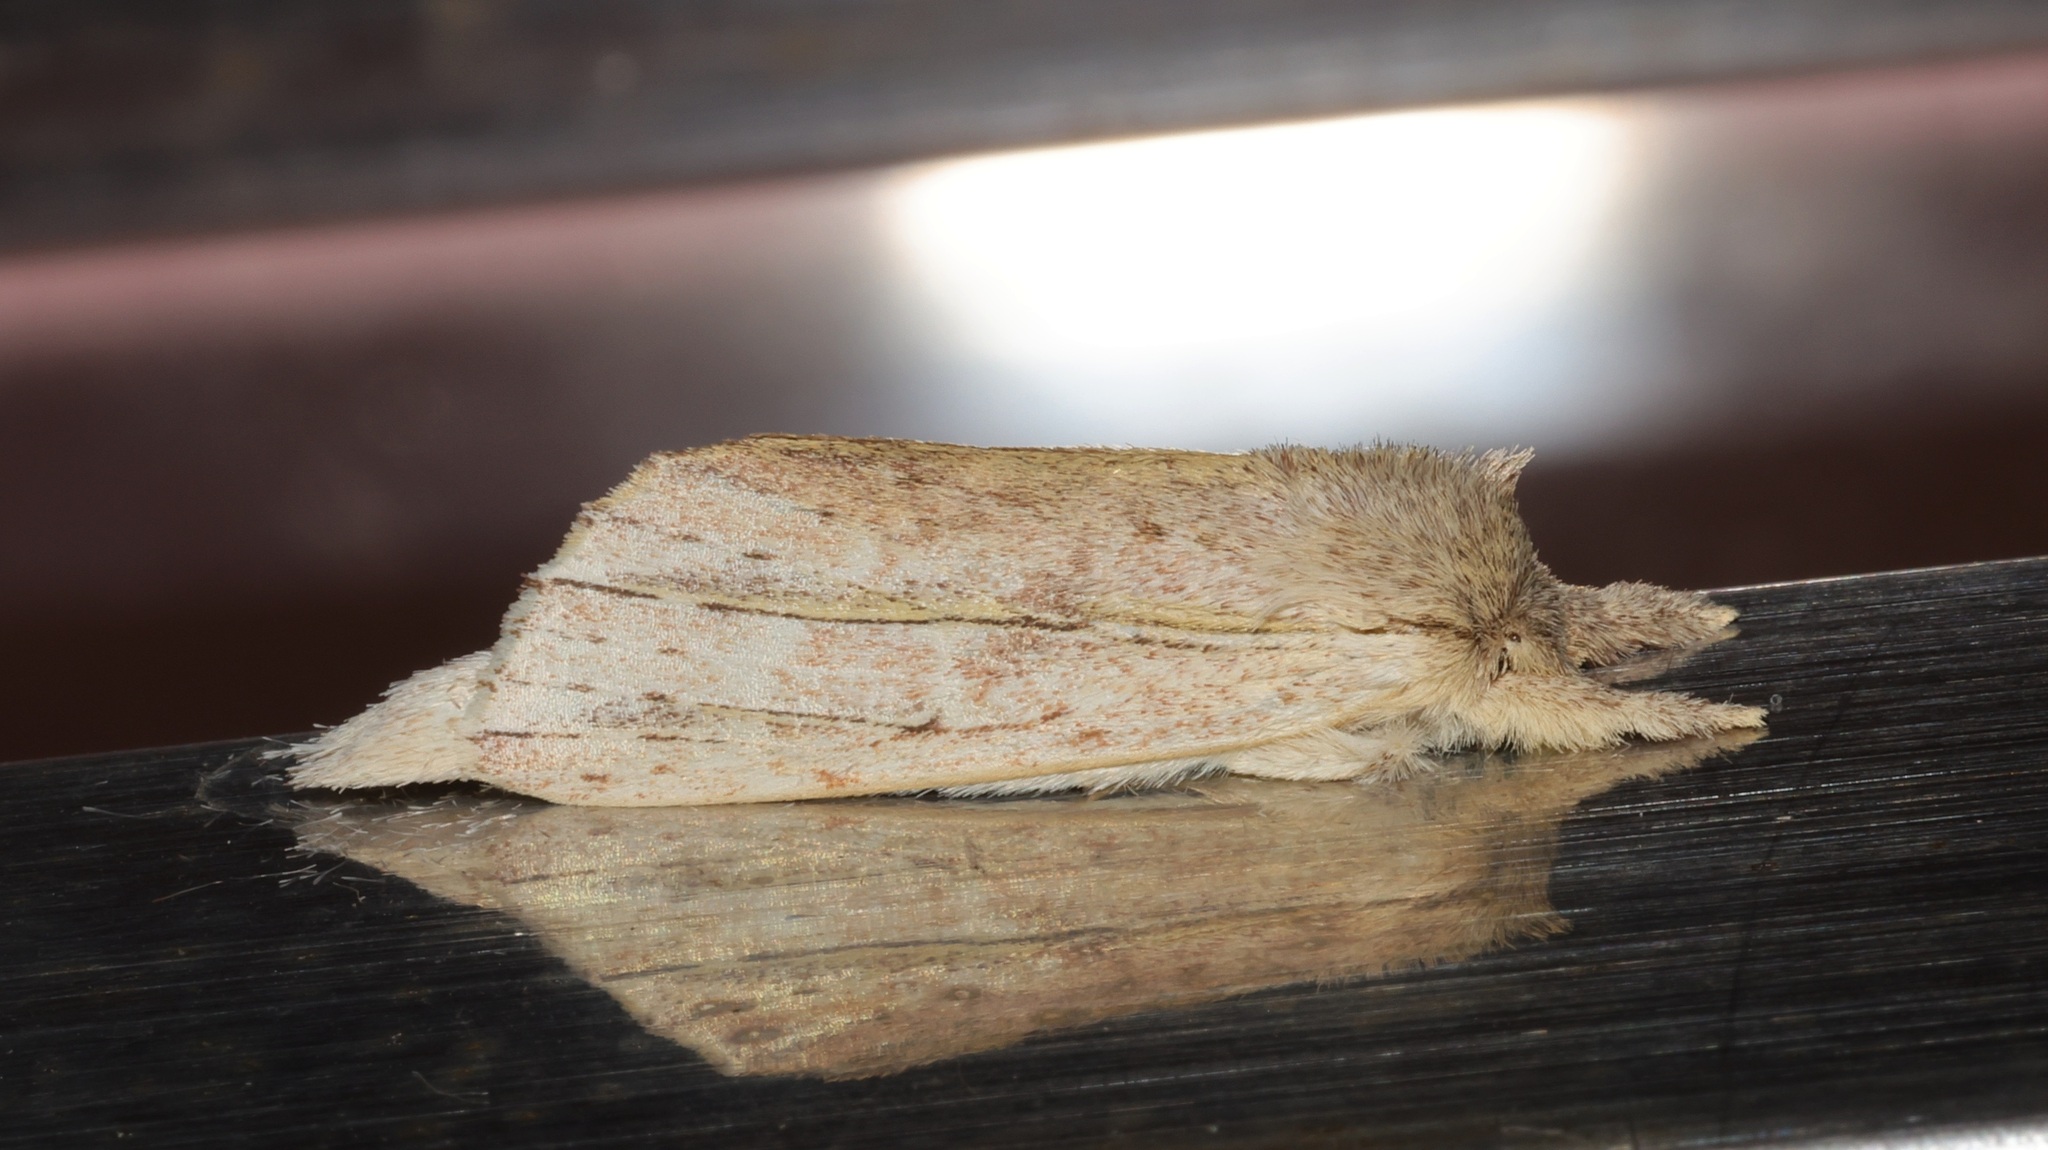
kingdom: Animalia
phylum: Arthropoda
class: Insecta
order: Lepidoptera
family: Notodontidae
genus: Ambadra
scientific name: Ambadra modesta
